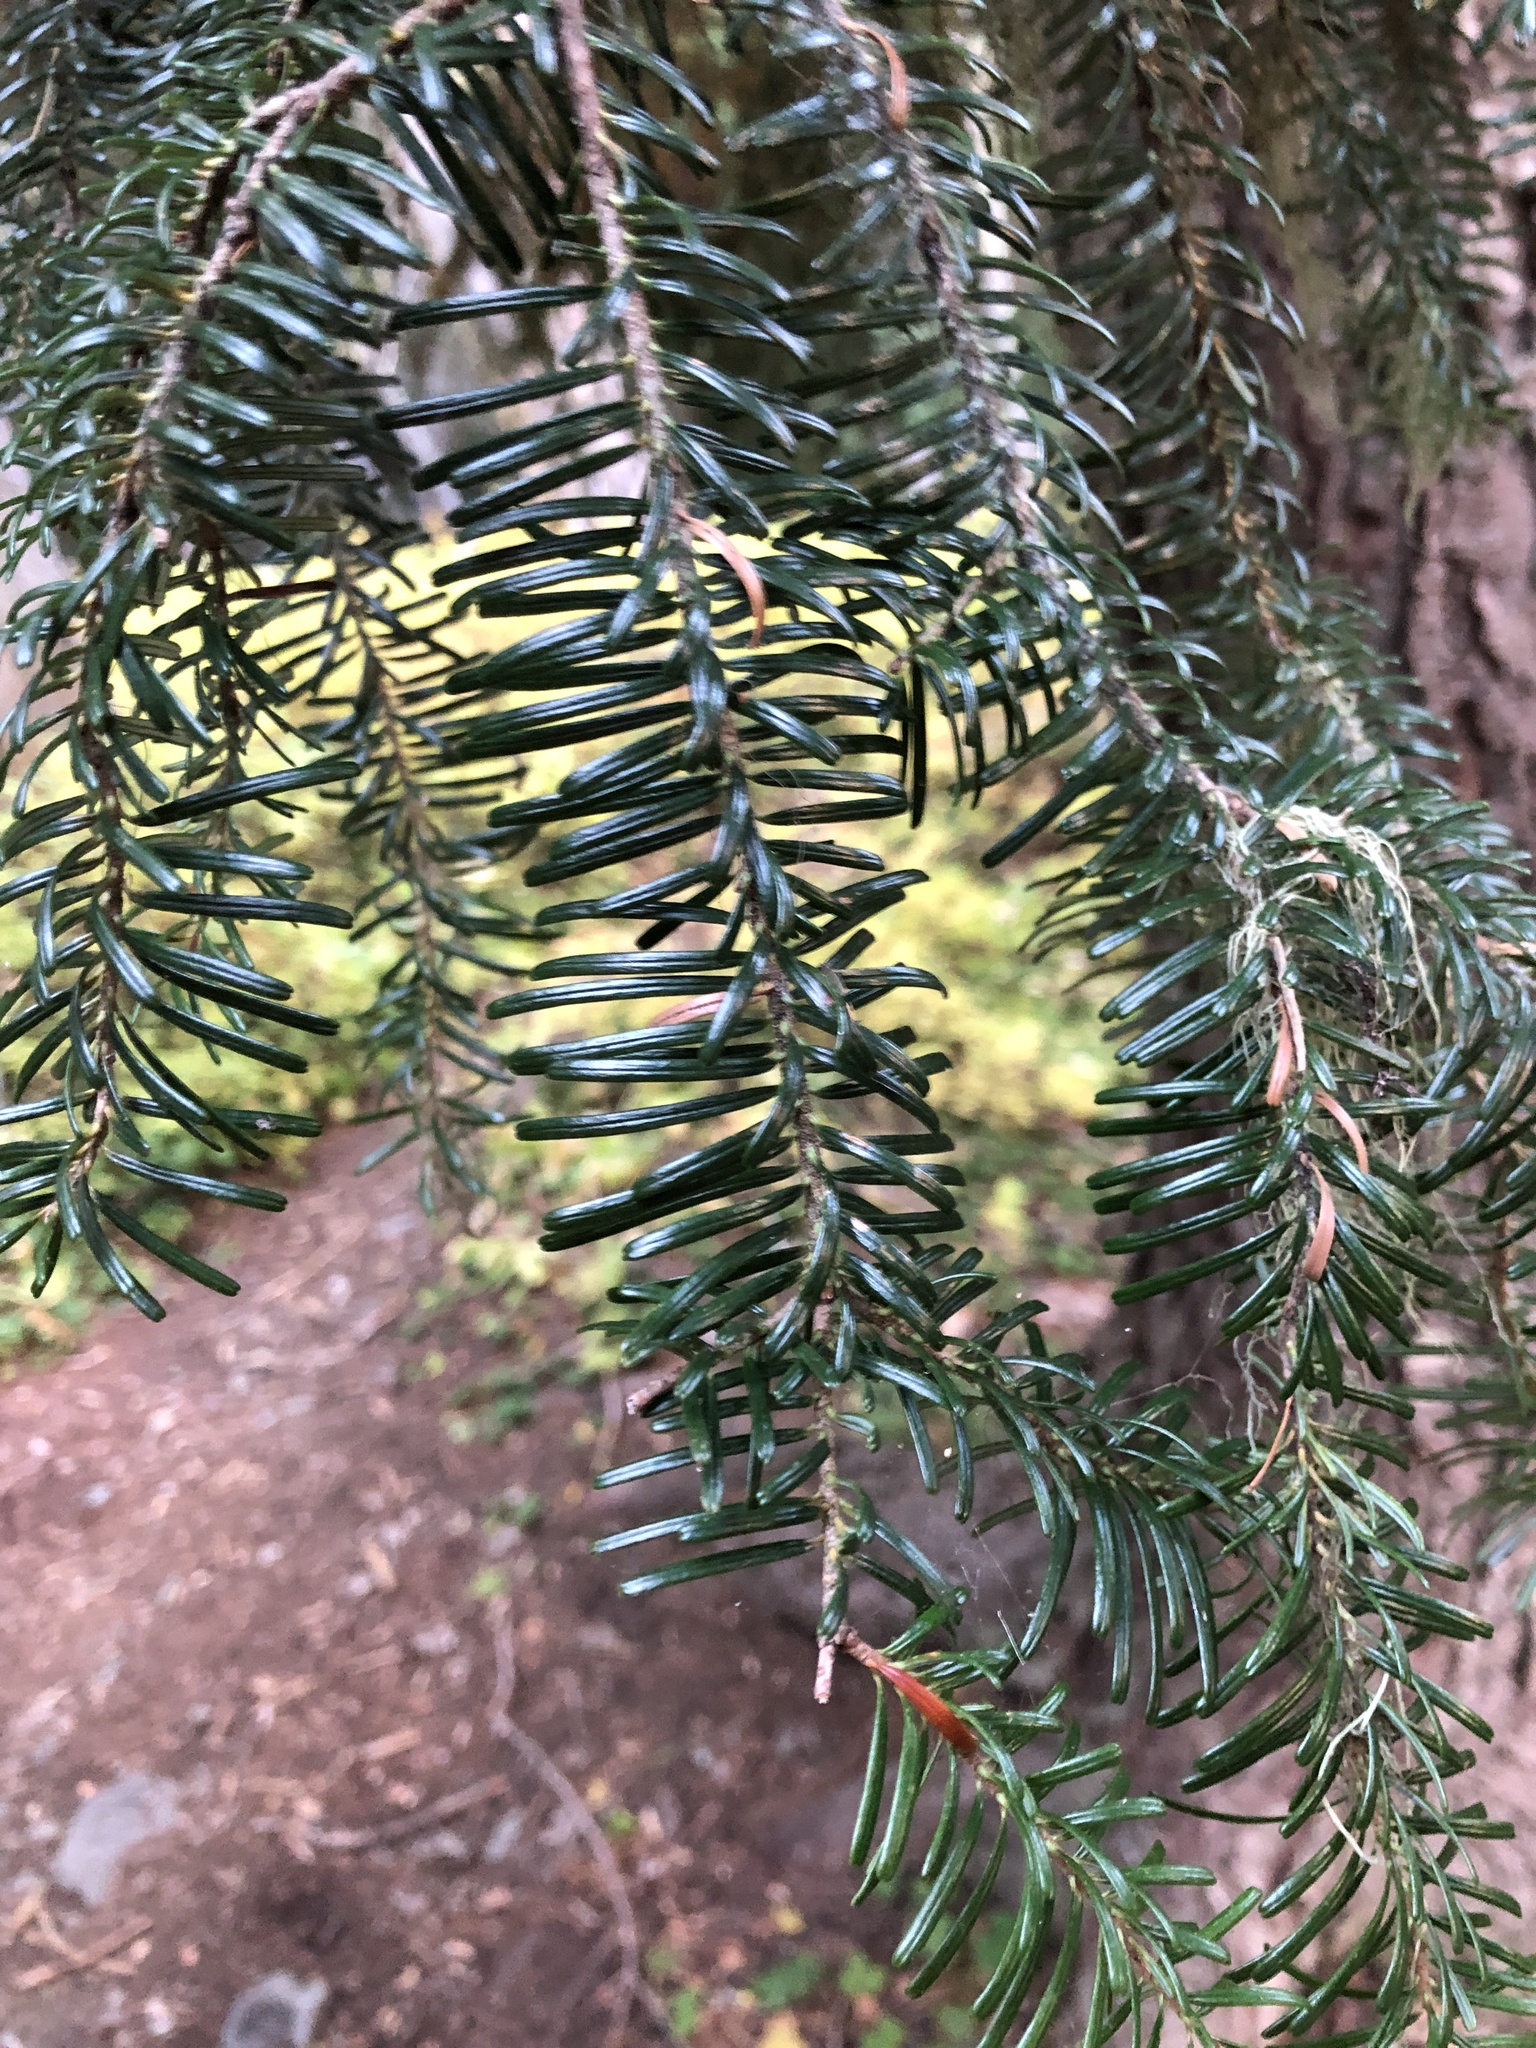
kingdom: Plantae
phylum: Tracheophyta
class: Pinopsida
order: Pinales
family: Pinaceae
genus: Abies
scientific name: Abies amabilis
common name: Pacific silver fir
